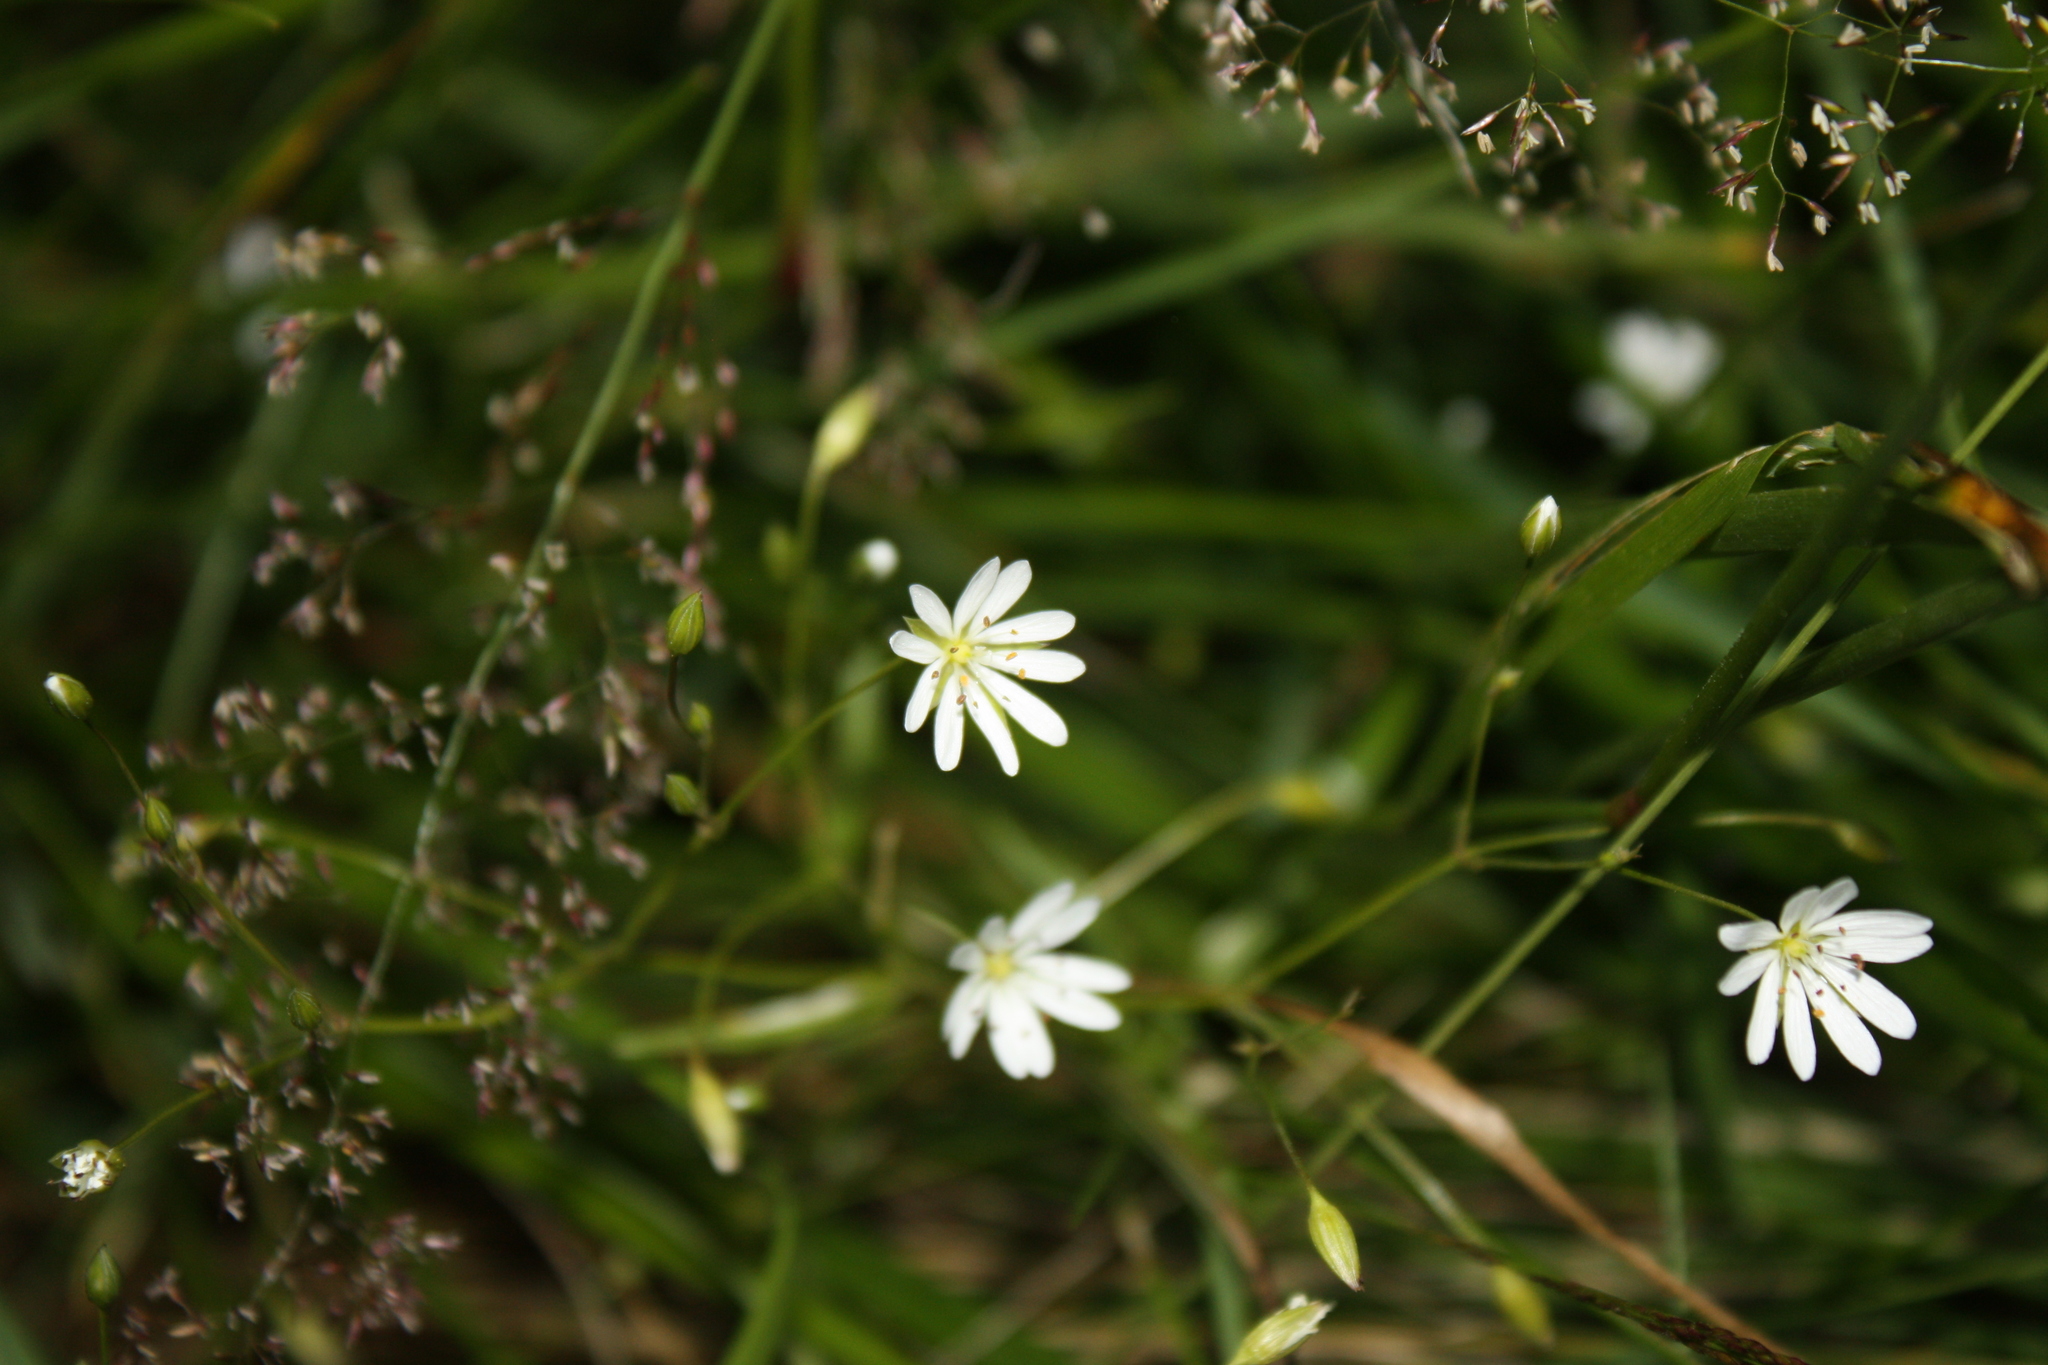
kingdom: Plantae
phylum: Tracheophyta
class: Magnoliopsida
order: Caryophyllales
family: Caryophyllaceae
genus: Stellaria
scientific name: Stellaria graminea
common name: Grass-like starwort
